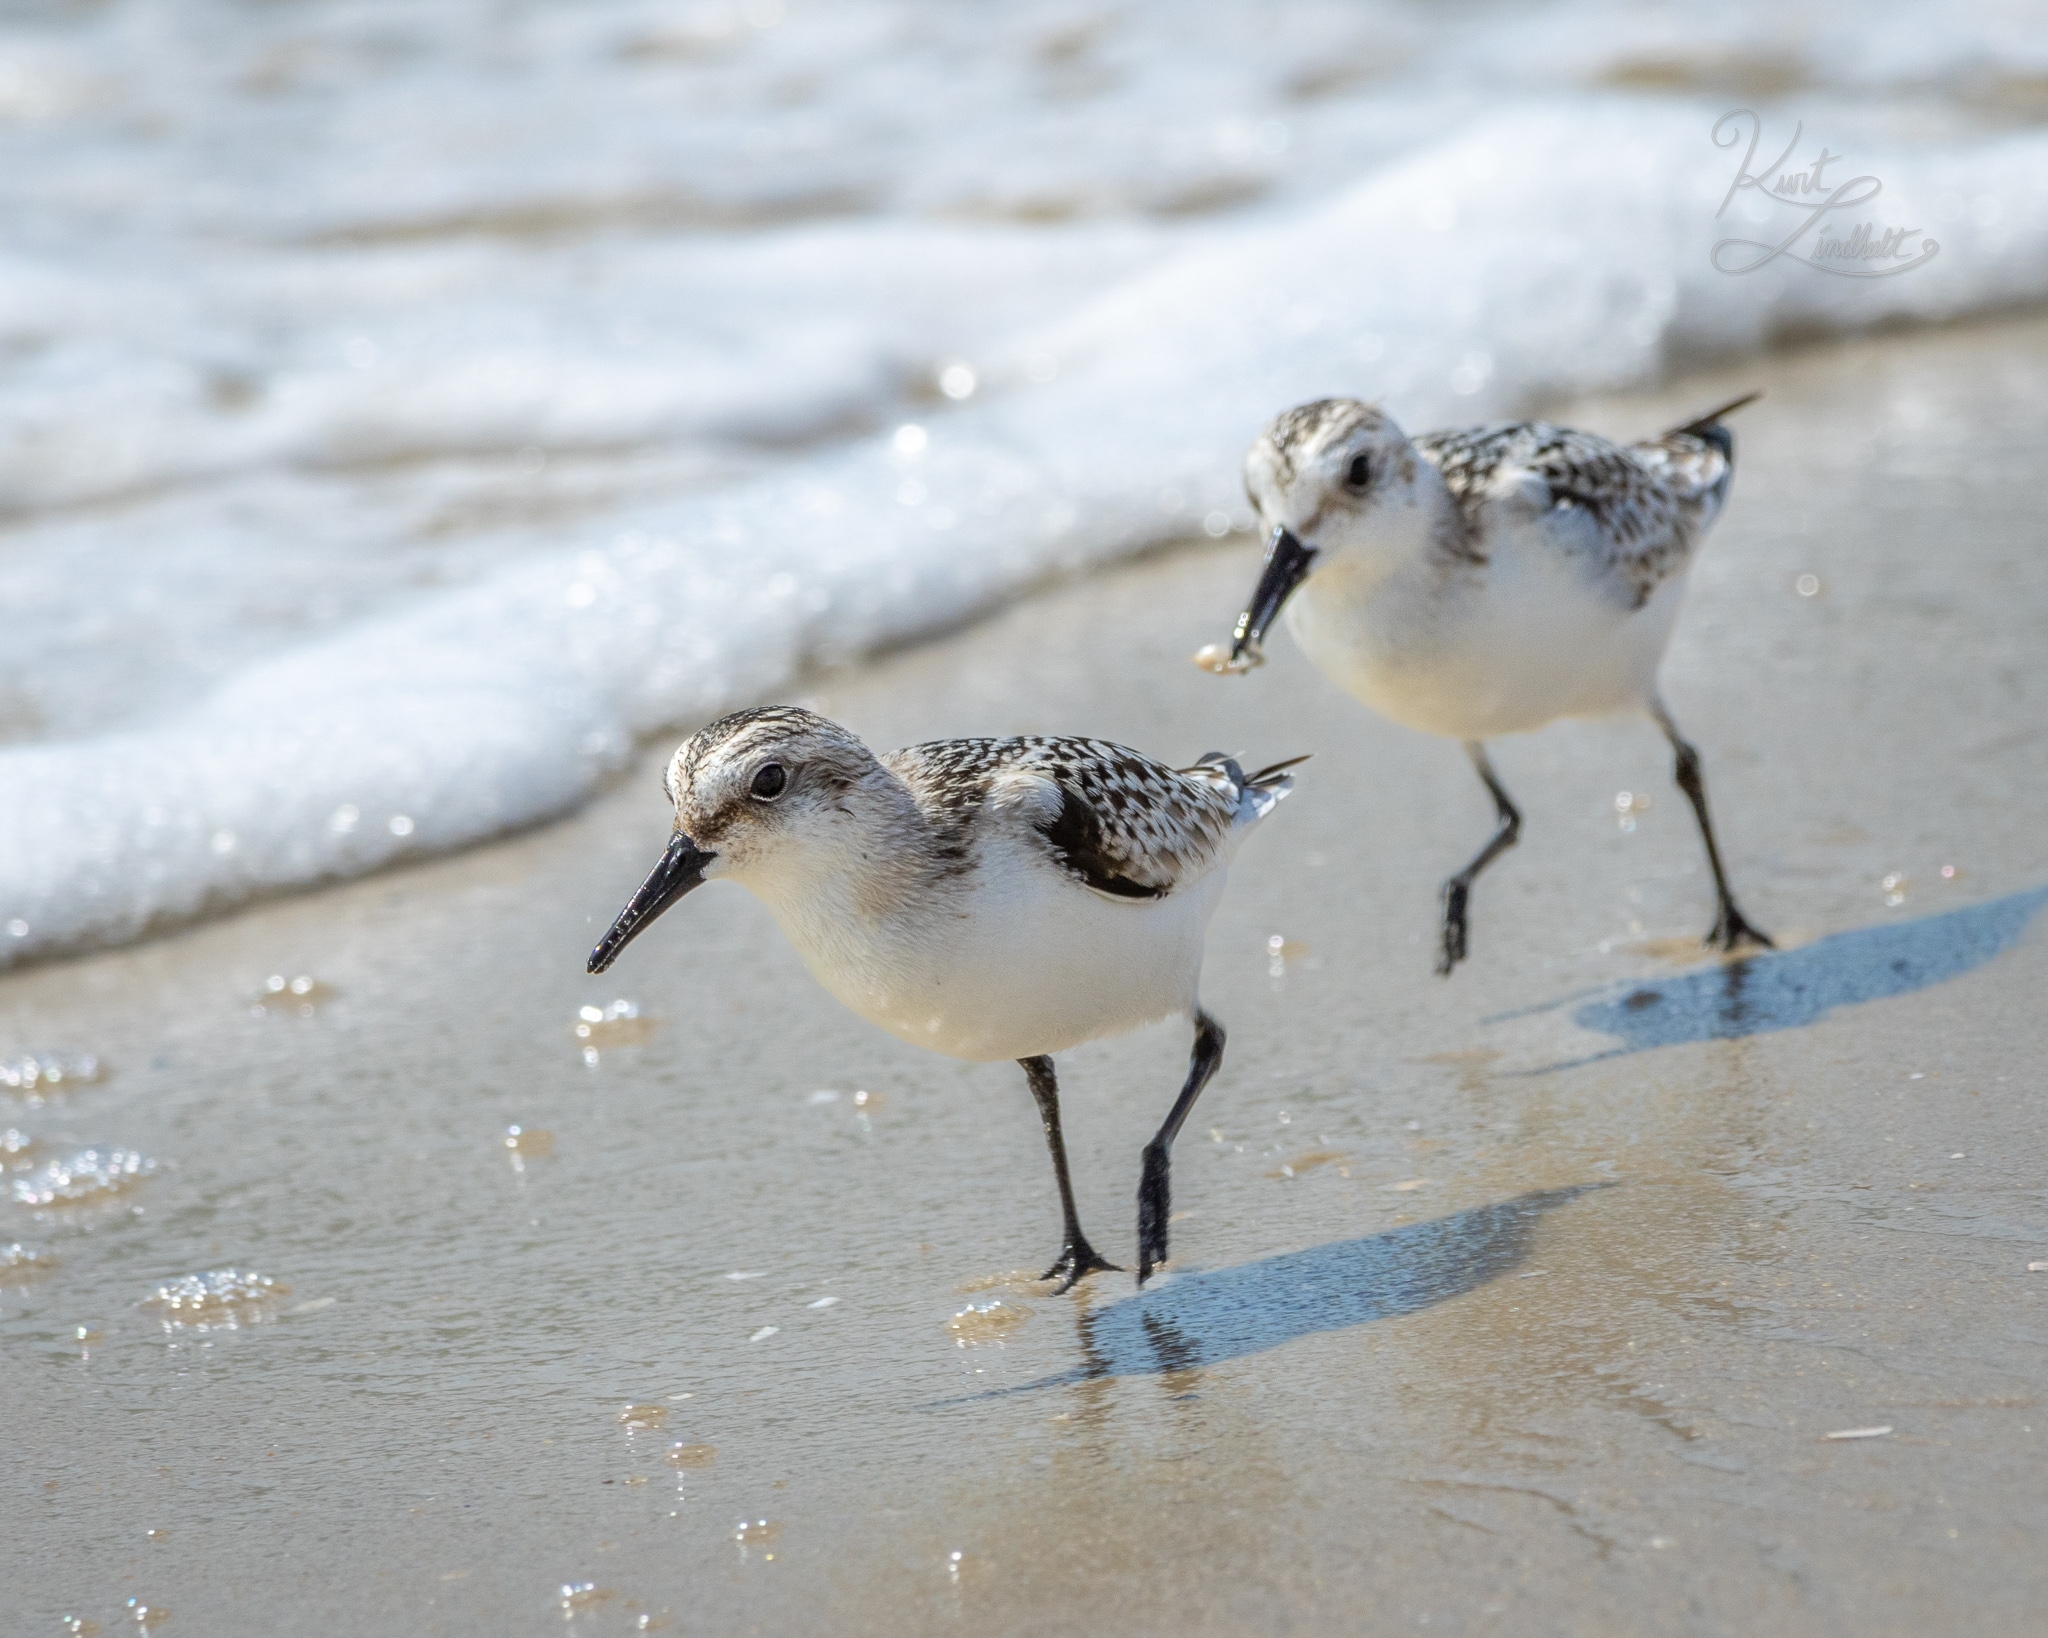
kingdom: Animalia
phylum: Chordata
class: Aves
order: Charadriiformes
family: Scolopacidae
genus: Calidris
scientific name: Calidris alba
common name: Sanderling
